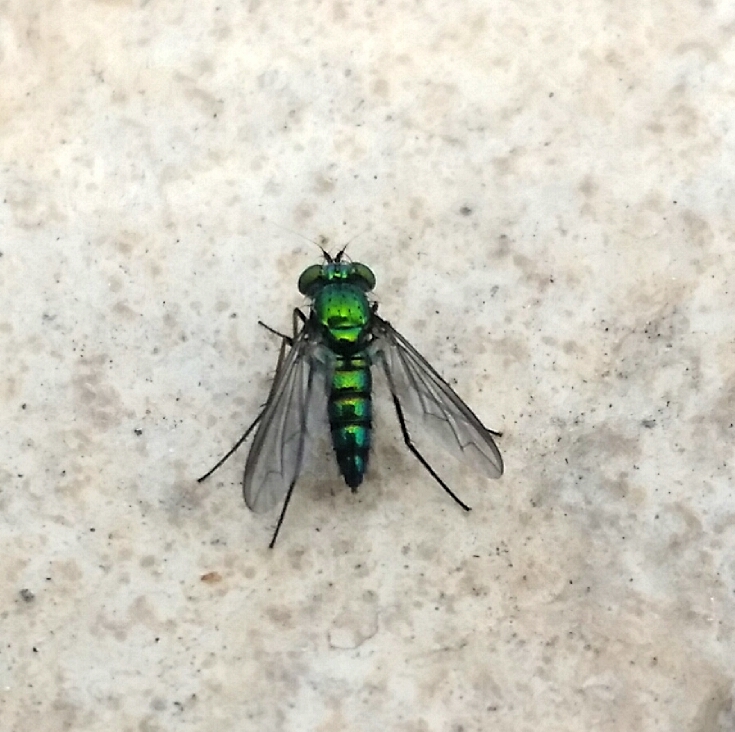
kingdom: Animalia
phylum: Arthropoda
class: Insecta
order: Diptera
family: Dolichopodidae
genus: Condylostylus
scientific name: Condylostylus longicornis
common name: Long-legged fly
